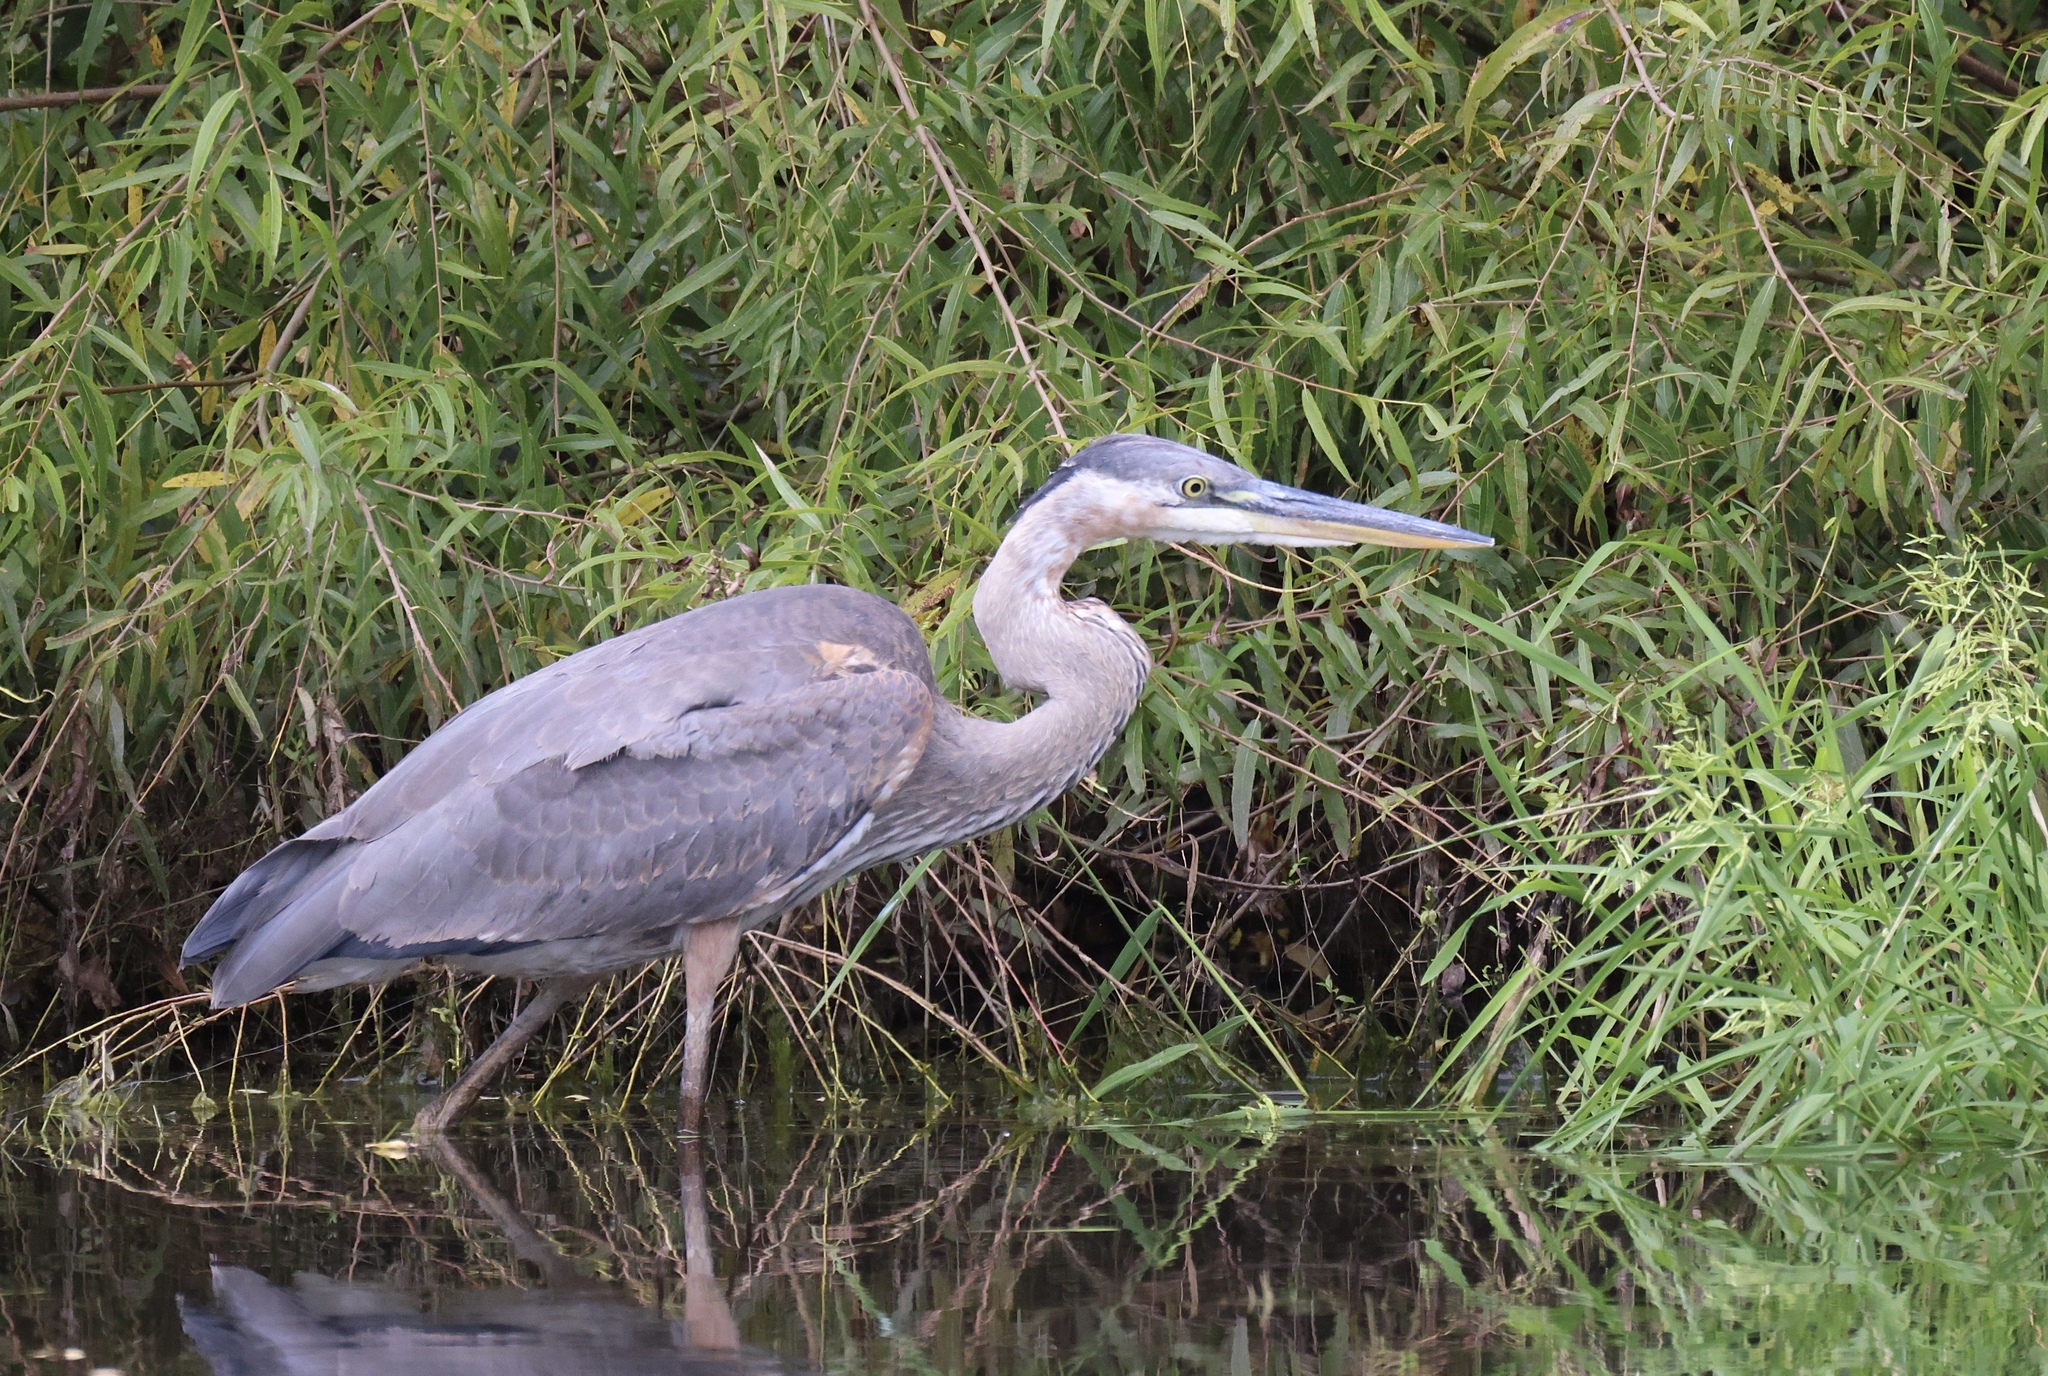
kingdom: Animalia
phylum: Chordata
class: Aves
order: Pelecaniformes
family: Ardeidae
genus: Ardea
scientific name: Ardea herodias
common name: Great blue heron
